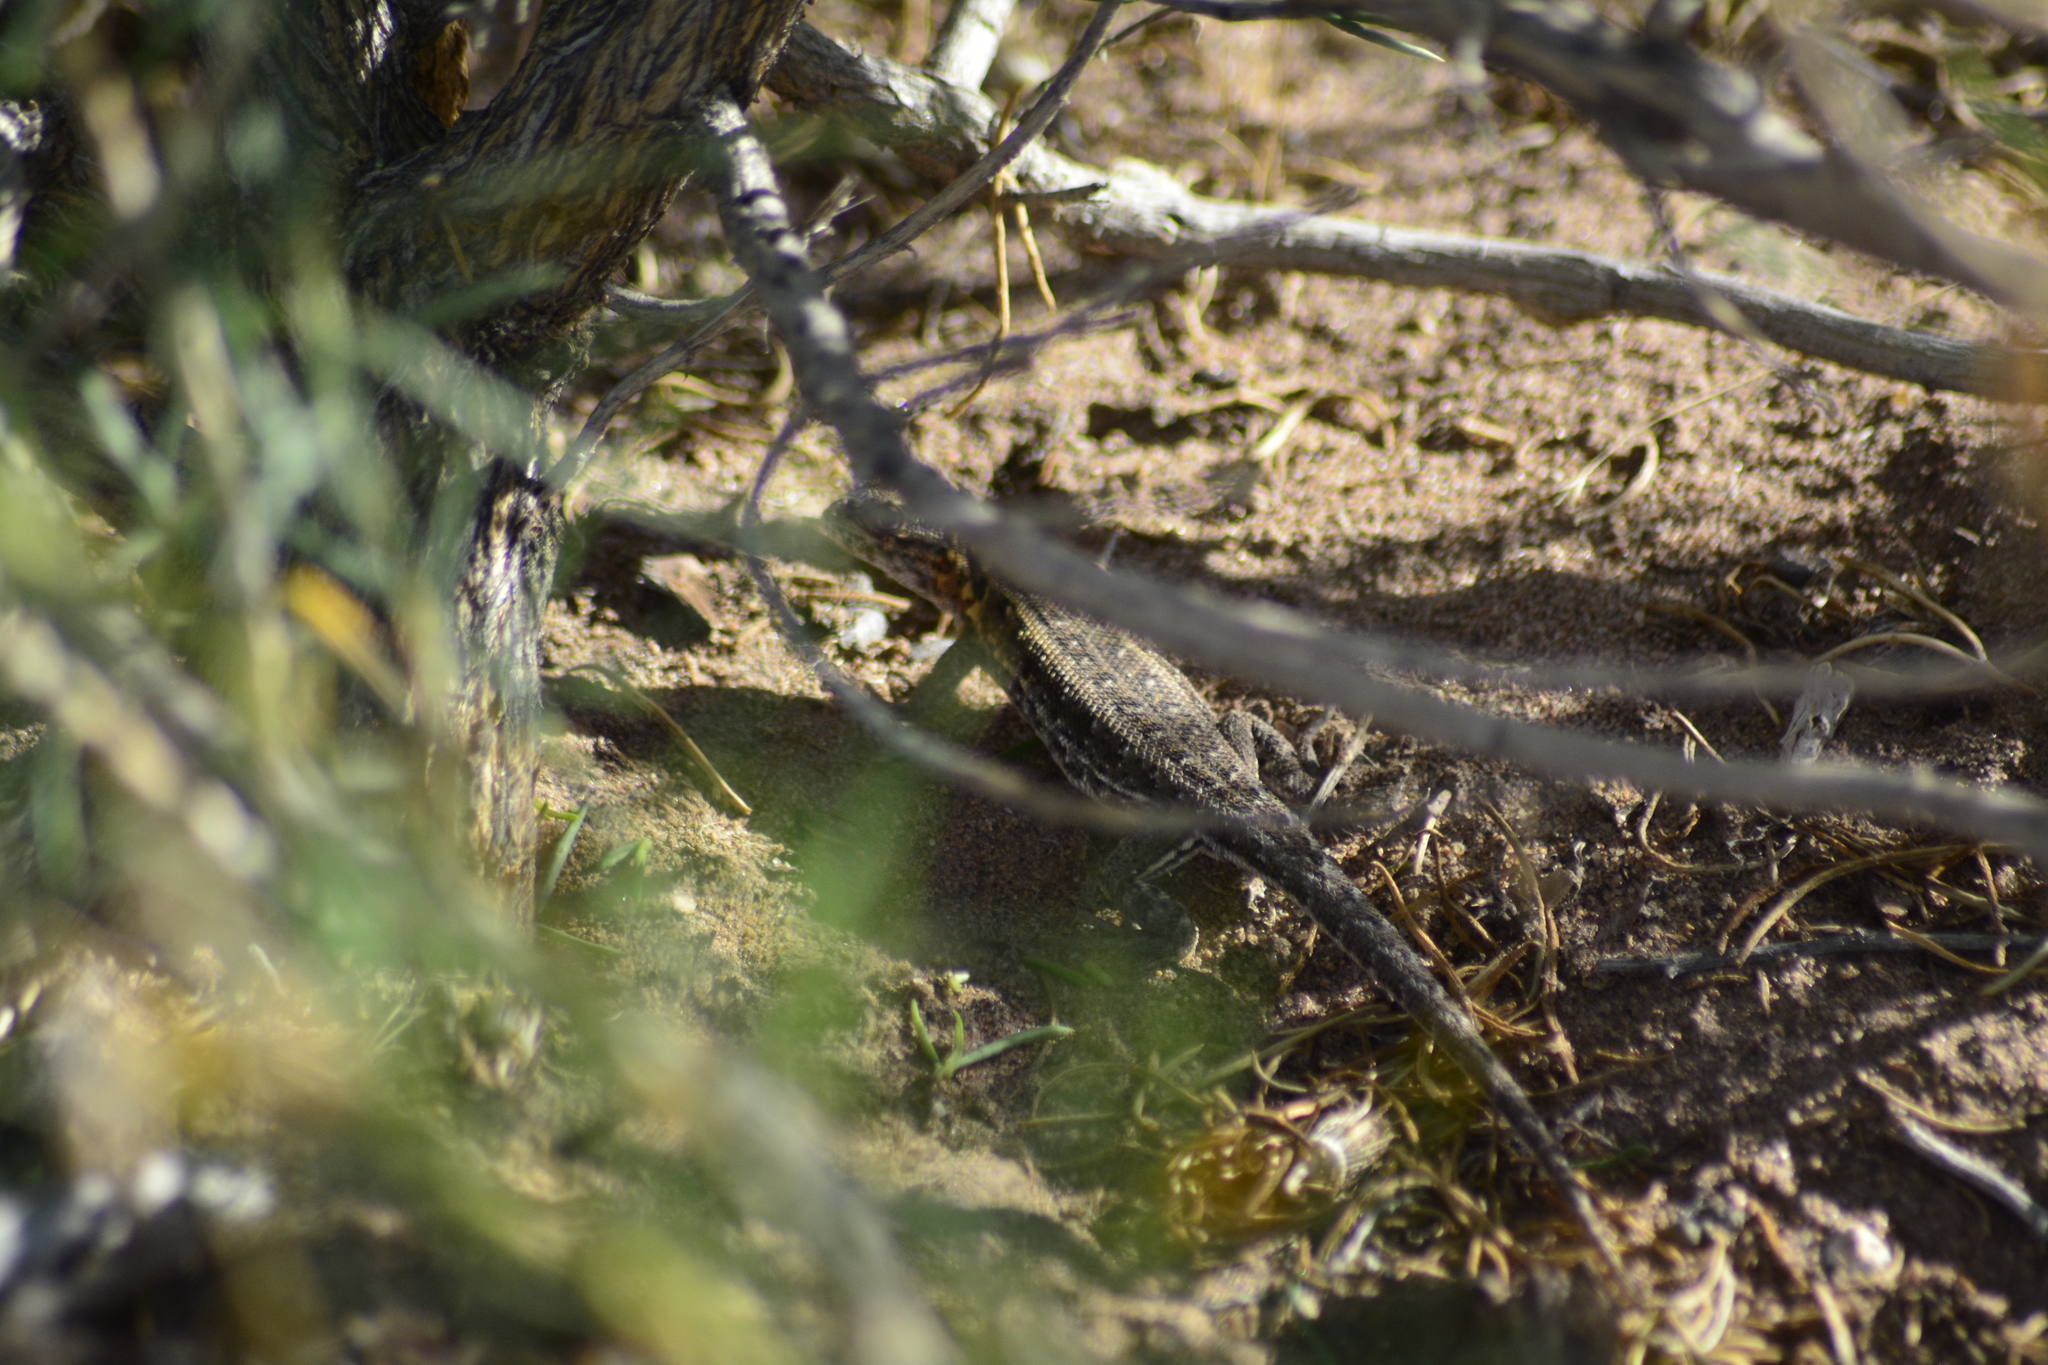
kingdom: Animalia
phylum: Chordata
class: Squamata
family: Liolaemidae
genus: Liolaemus
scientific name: Liolaemus darwinii
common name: Darwin's tree iguana
